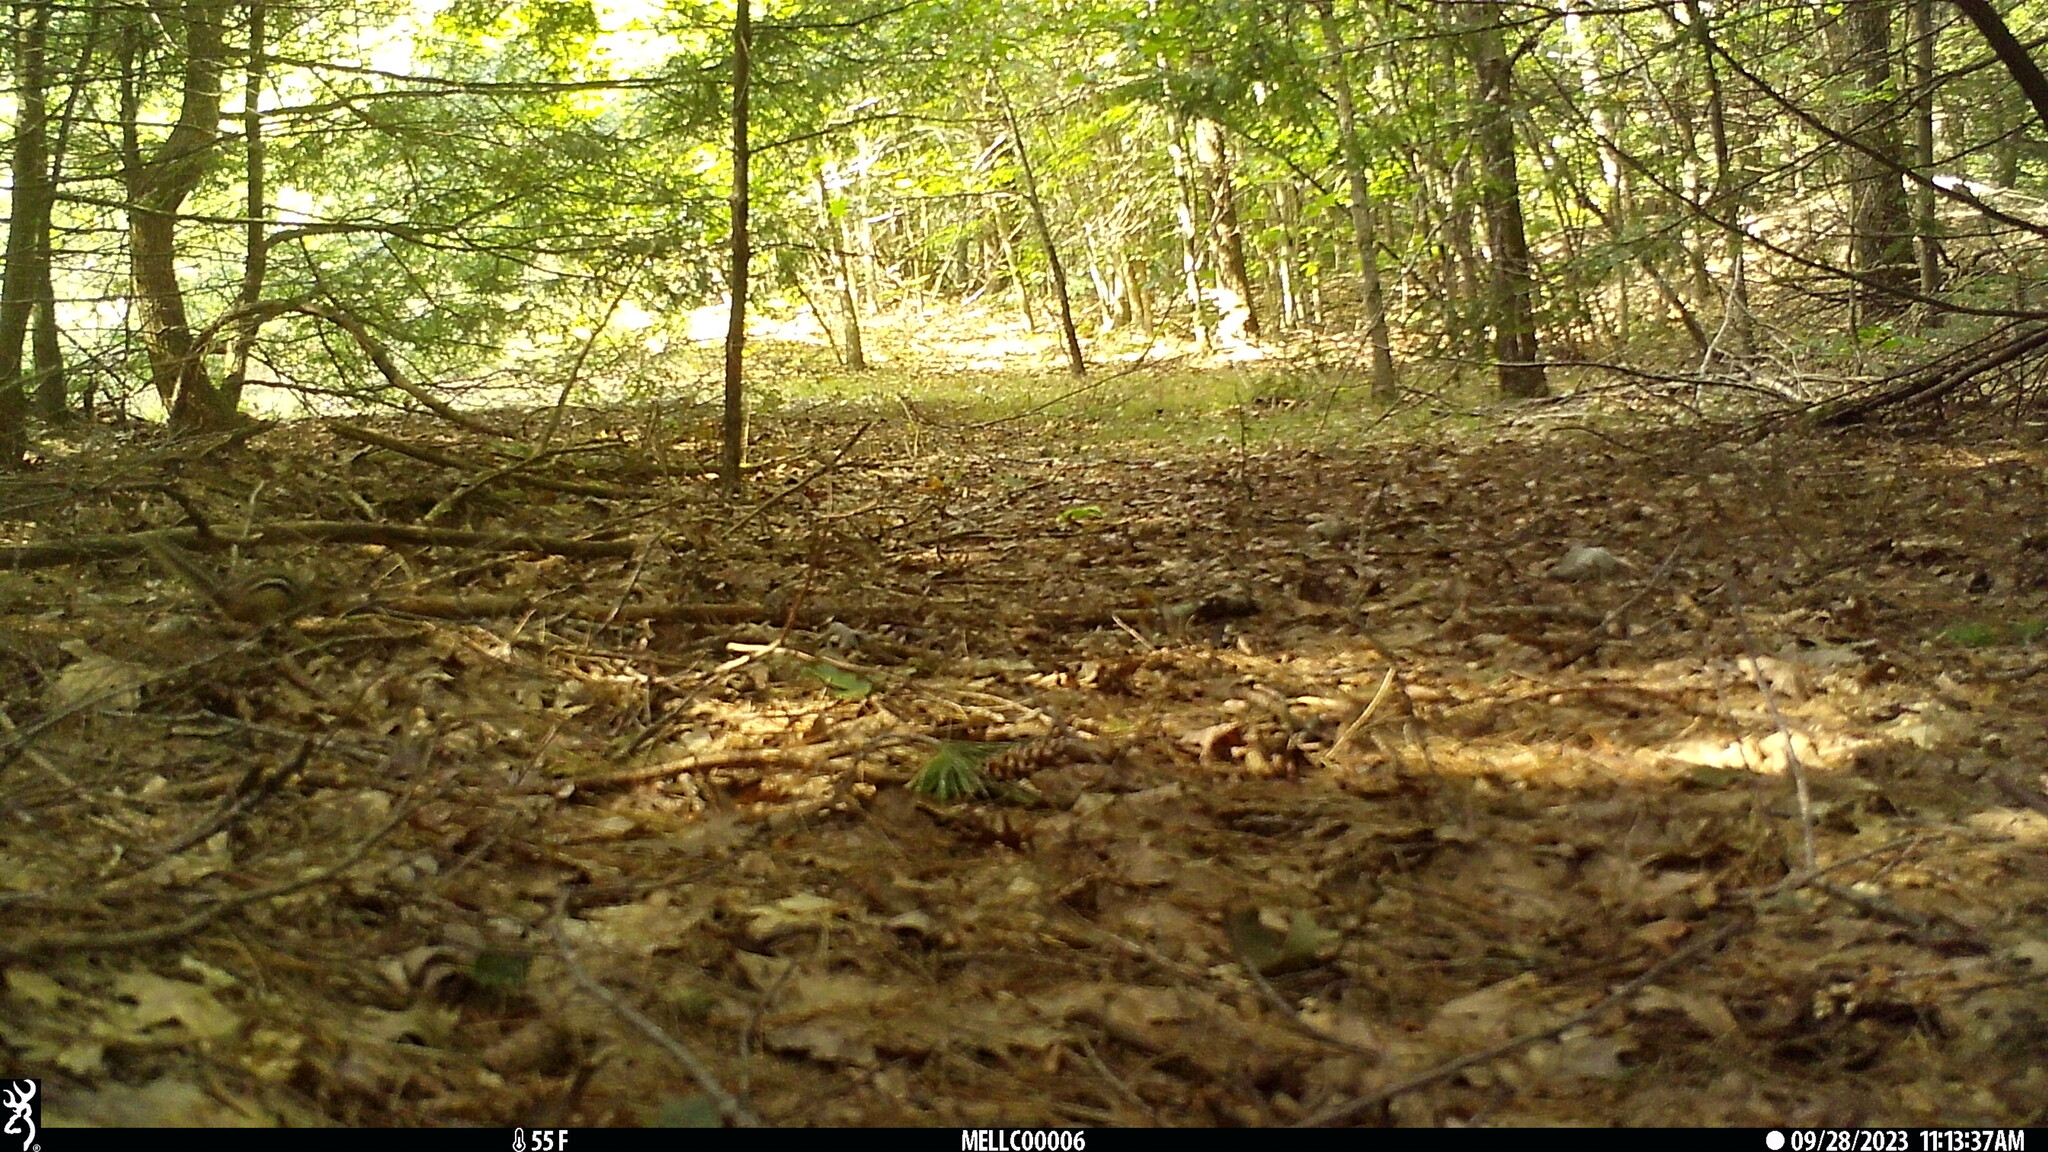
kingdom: Animalia
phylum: Chordata
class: Mammalia
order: Rodentia
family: Sciuridae
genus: Tamias
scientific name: Tamias striatus
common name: Eastern chipmunk
